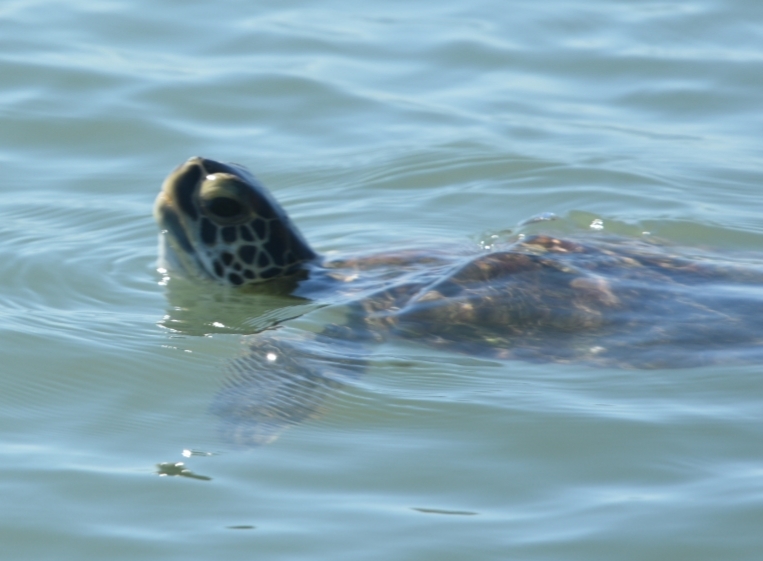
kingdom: Animalia
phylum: Chordata
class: Testudines
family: Cheloniidae
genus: Chelonia
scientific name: Chelonia mydas
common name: Green turtle
